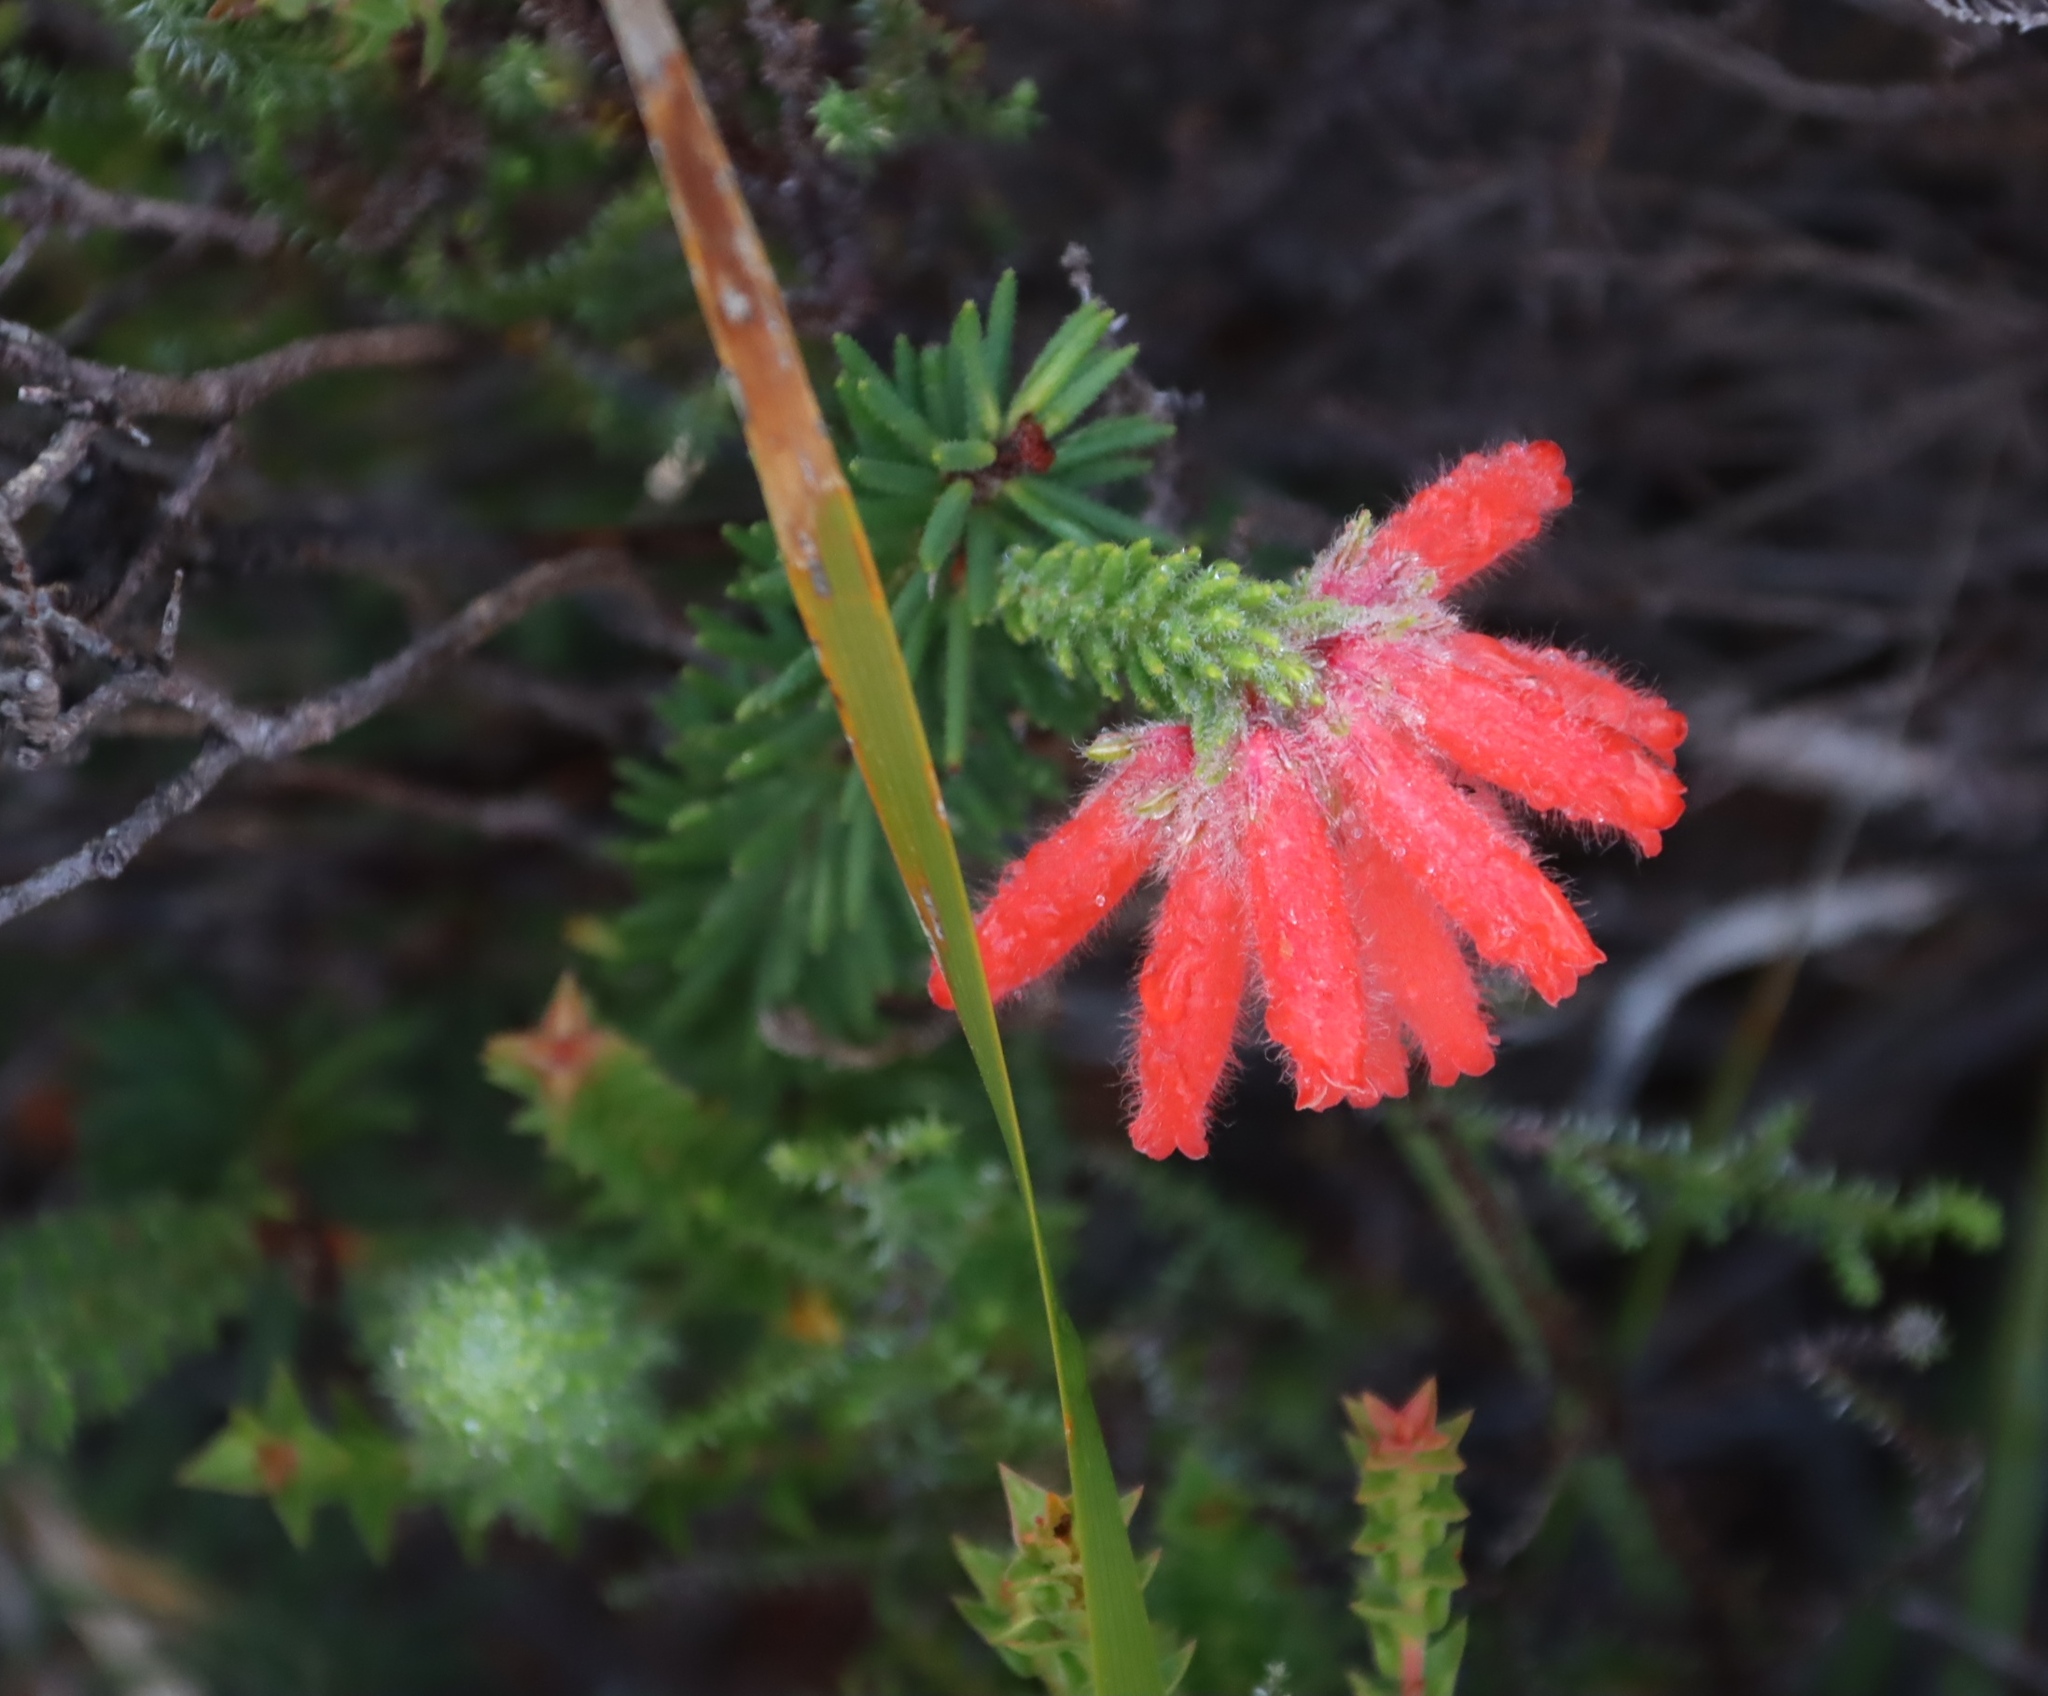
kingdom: Plantae
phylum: Tracheophyta
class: Magnoliopsida
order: Ericales
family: Ericaceae
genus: Erica
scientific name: Erica cerinthoides
